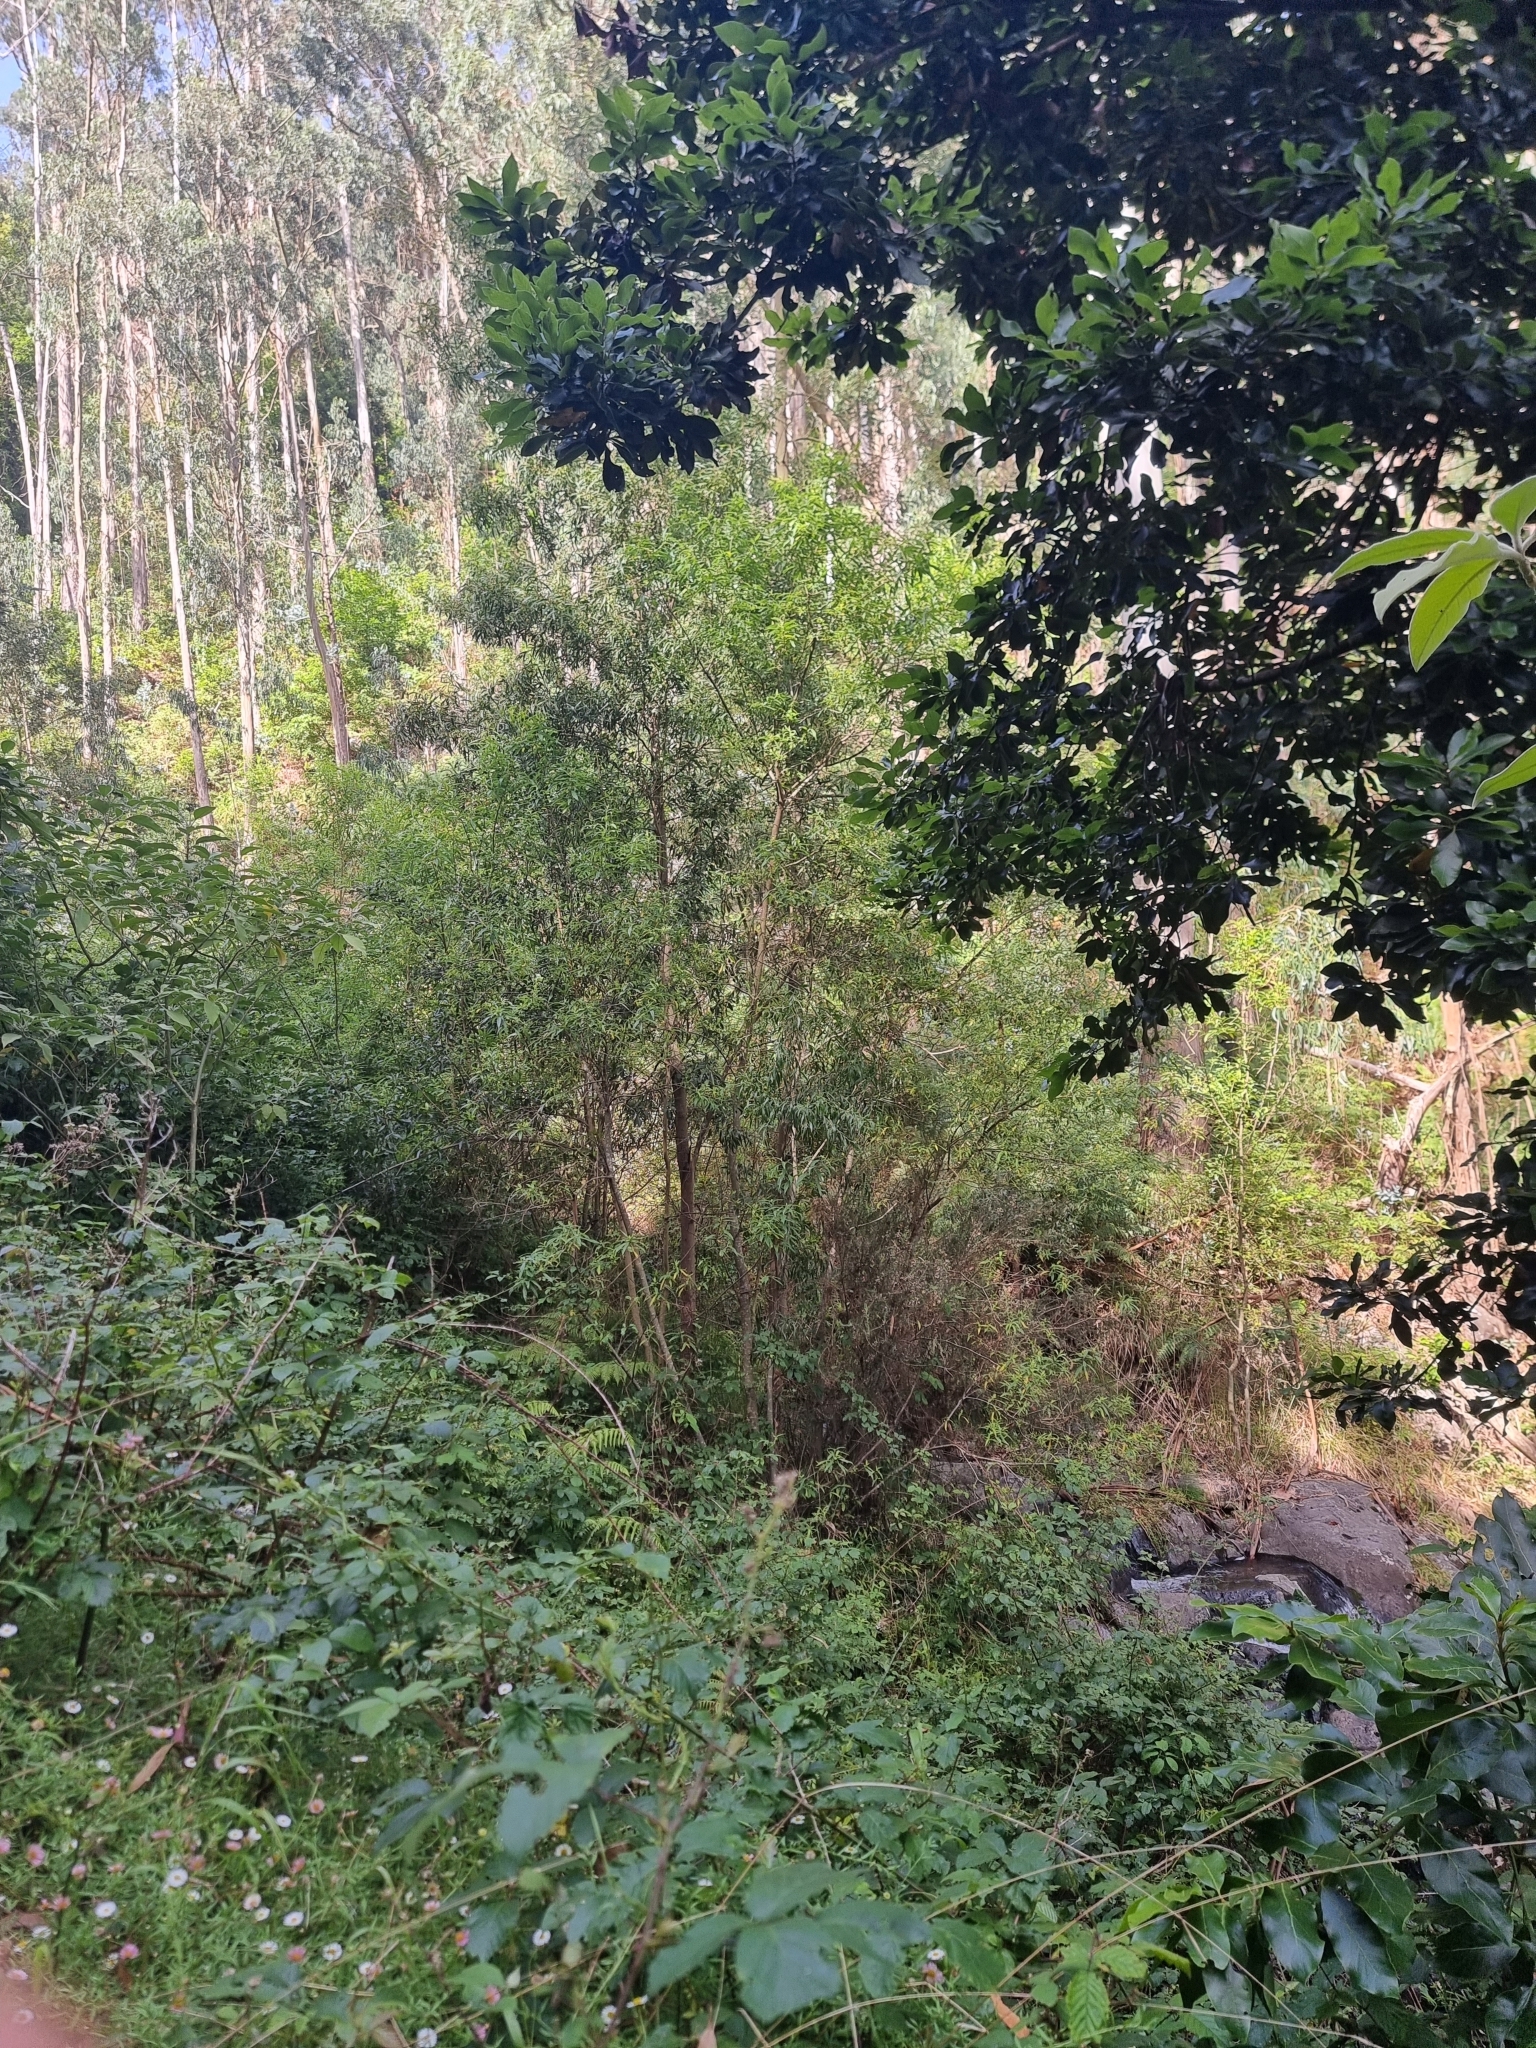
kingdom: Plantae
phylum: Tracheophyta
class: Magnoliopsida
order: Malpighiales
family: Salicaceae
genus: Salix
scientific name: Salix canariensis
